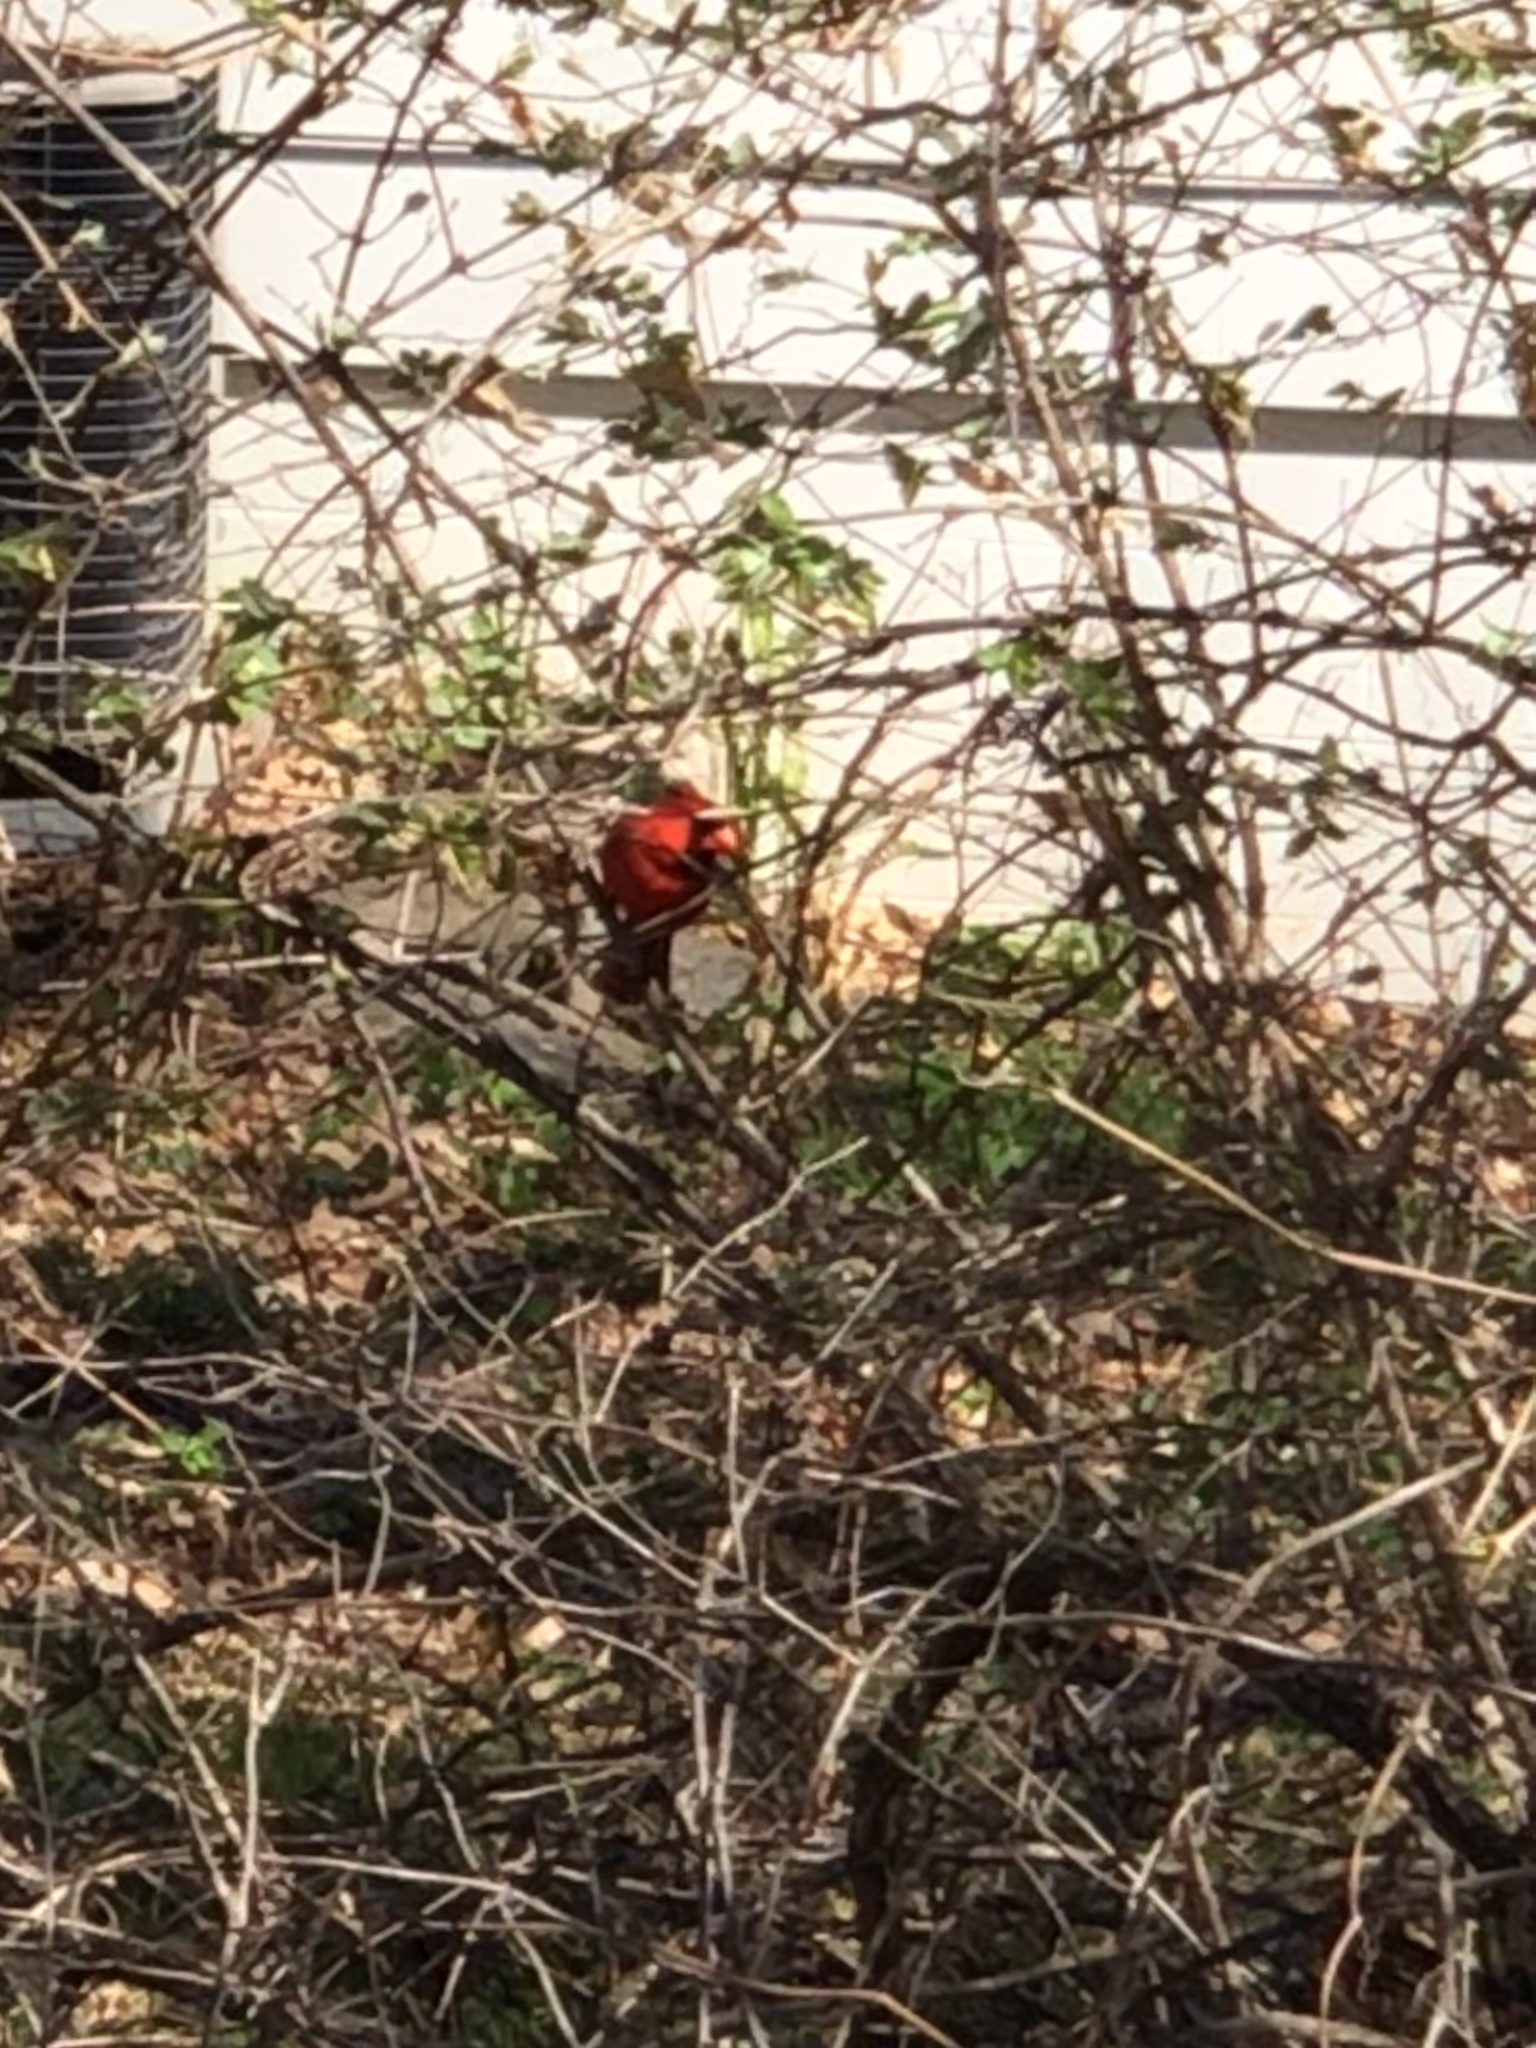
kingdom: Animalia
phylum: Chordata
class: Aves
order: Passeriformes
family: Cardinalidae
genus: Cardinalis
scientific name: Cardinalis cardinalis
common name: Northern cardinal
